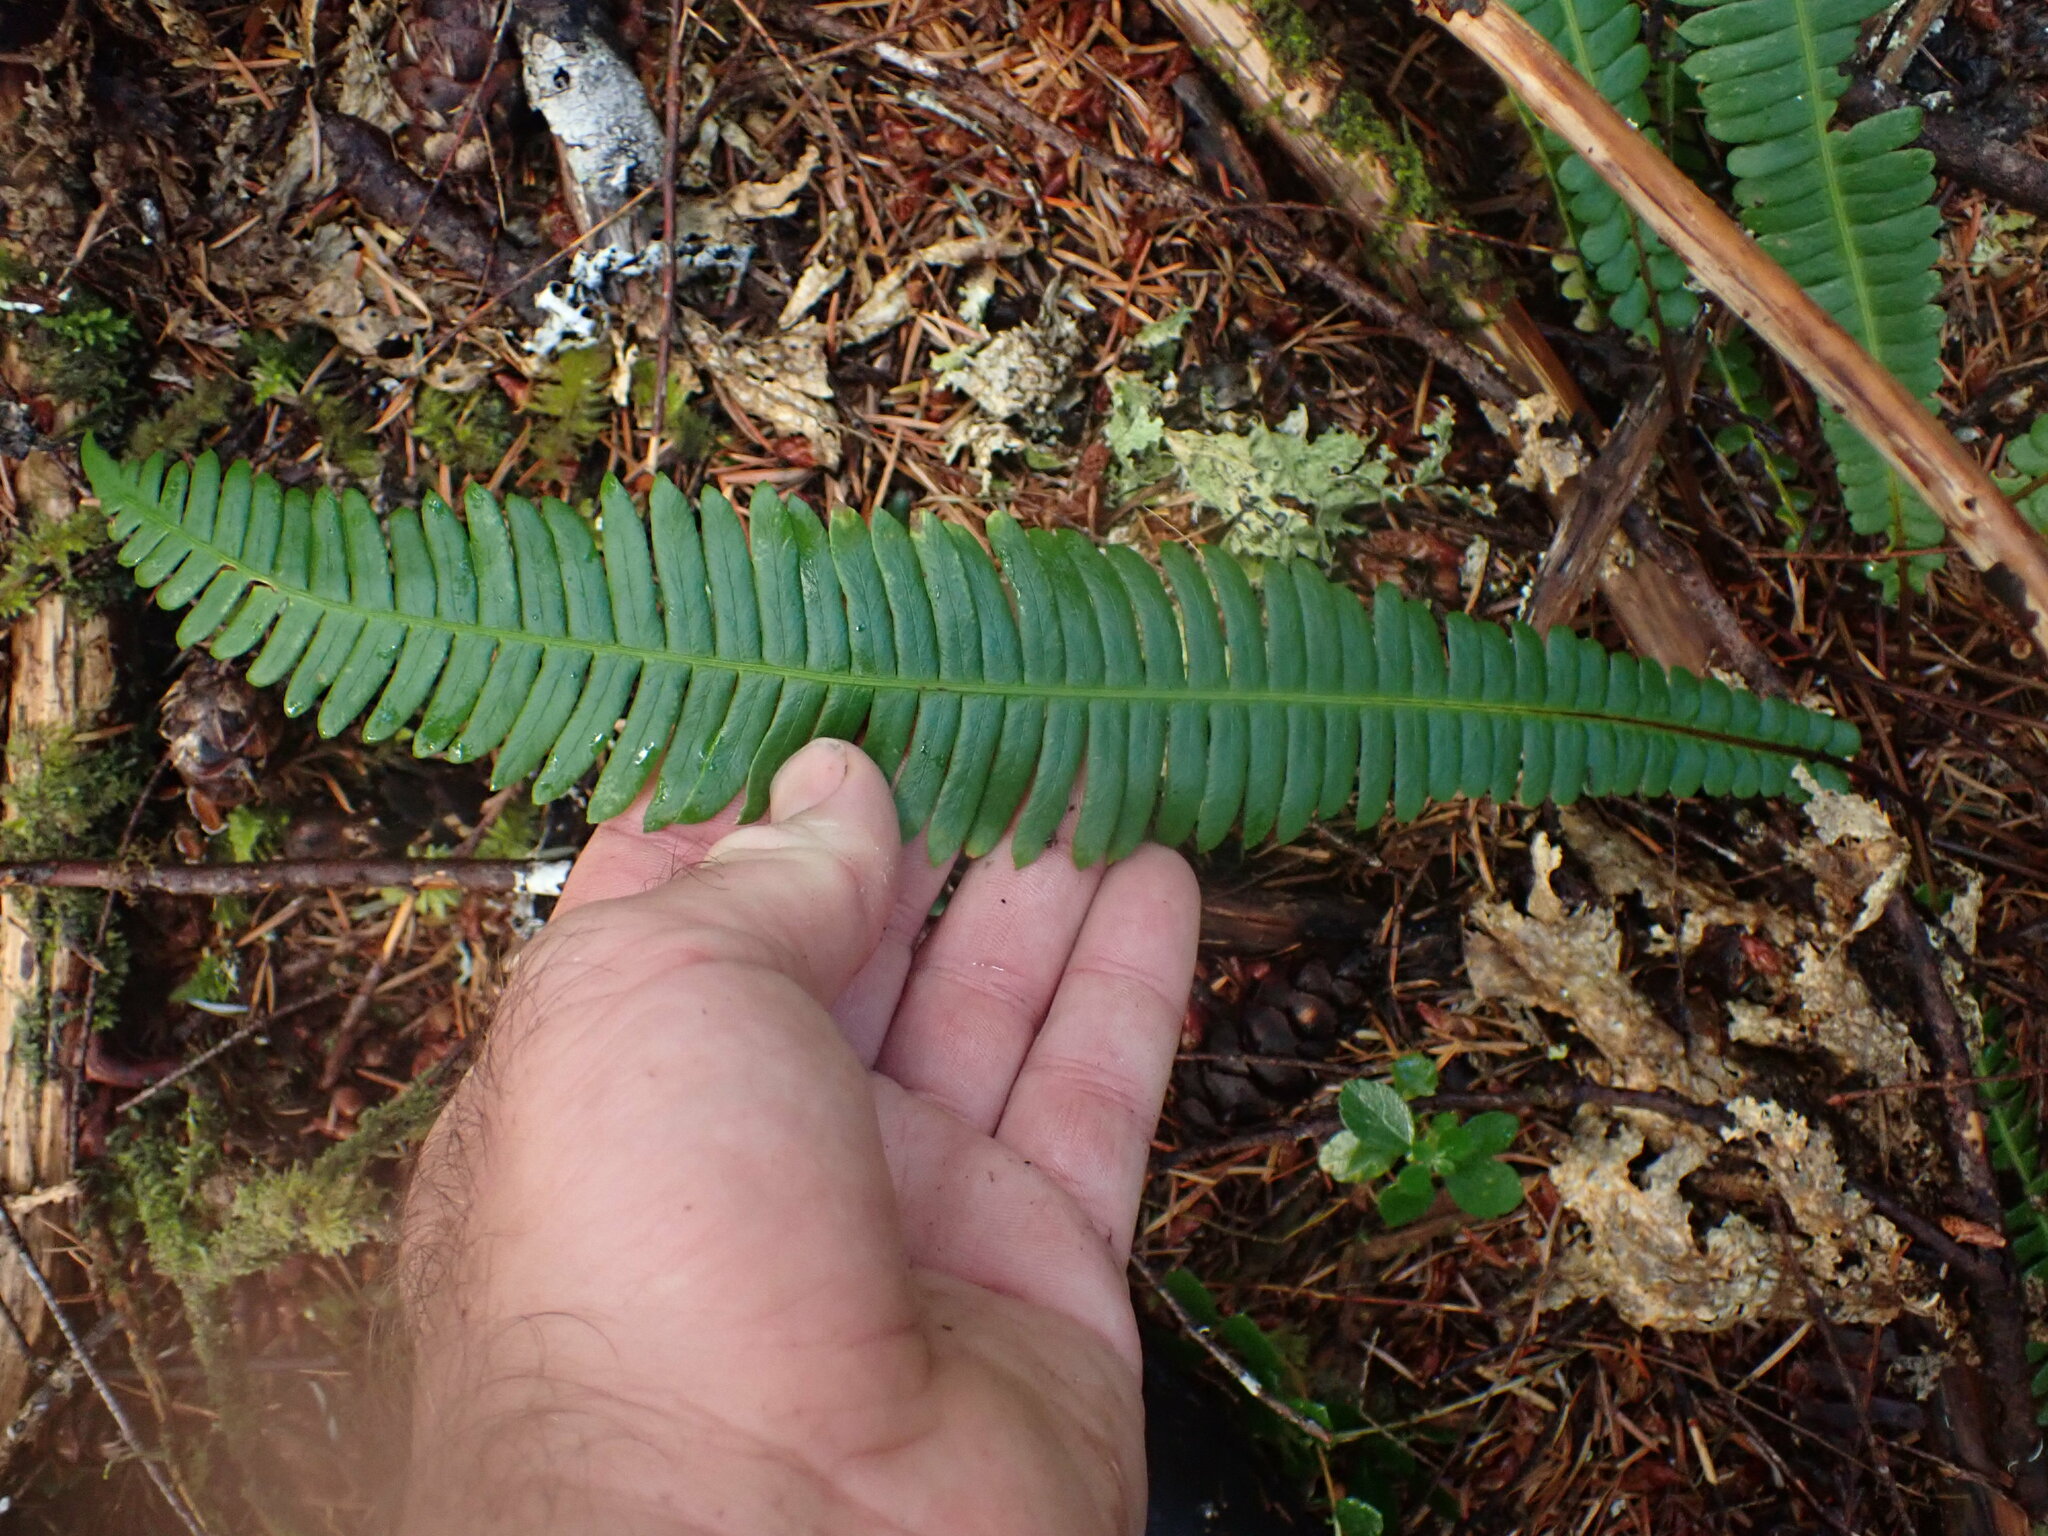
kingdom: Plantae
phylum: Tracheophyta
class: Polypodiopsida
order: Polypodiales
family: Blechnaceae
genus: Struthiopteris
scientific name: Struthiopteris spicant
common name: Deer fern
